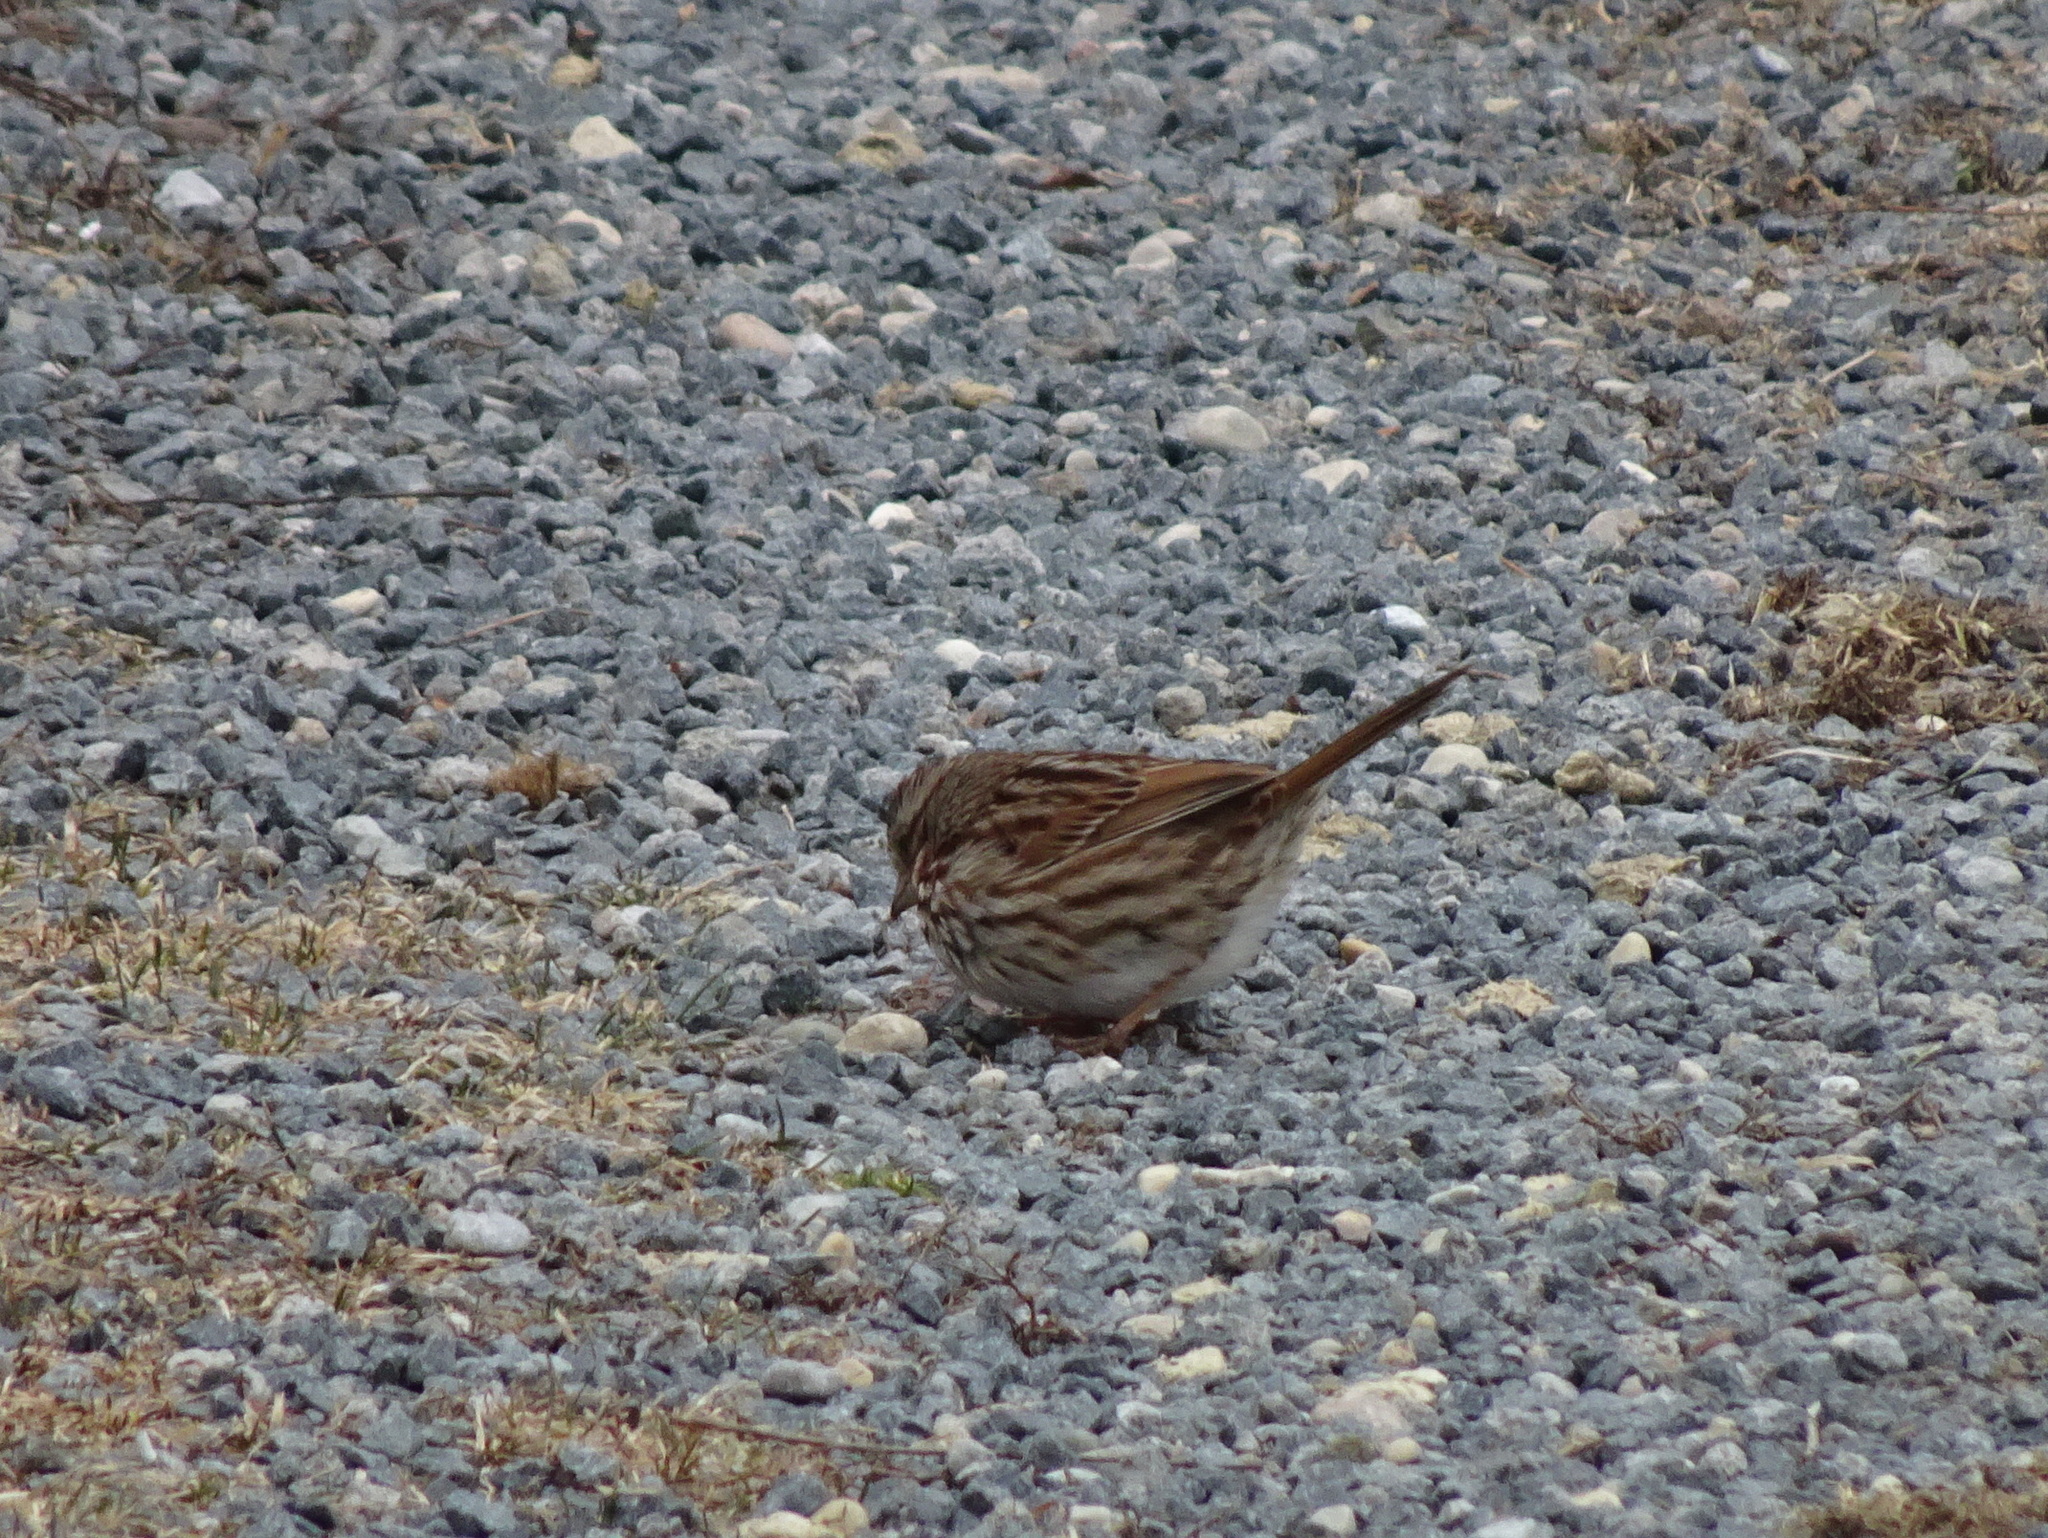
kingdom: Animalia
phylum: Chordata
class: Aves
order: Passeriformes
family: Passerellidae
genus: Melospiza
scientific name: Melospiza melodia
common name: Song sparrow
